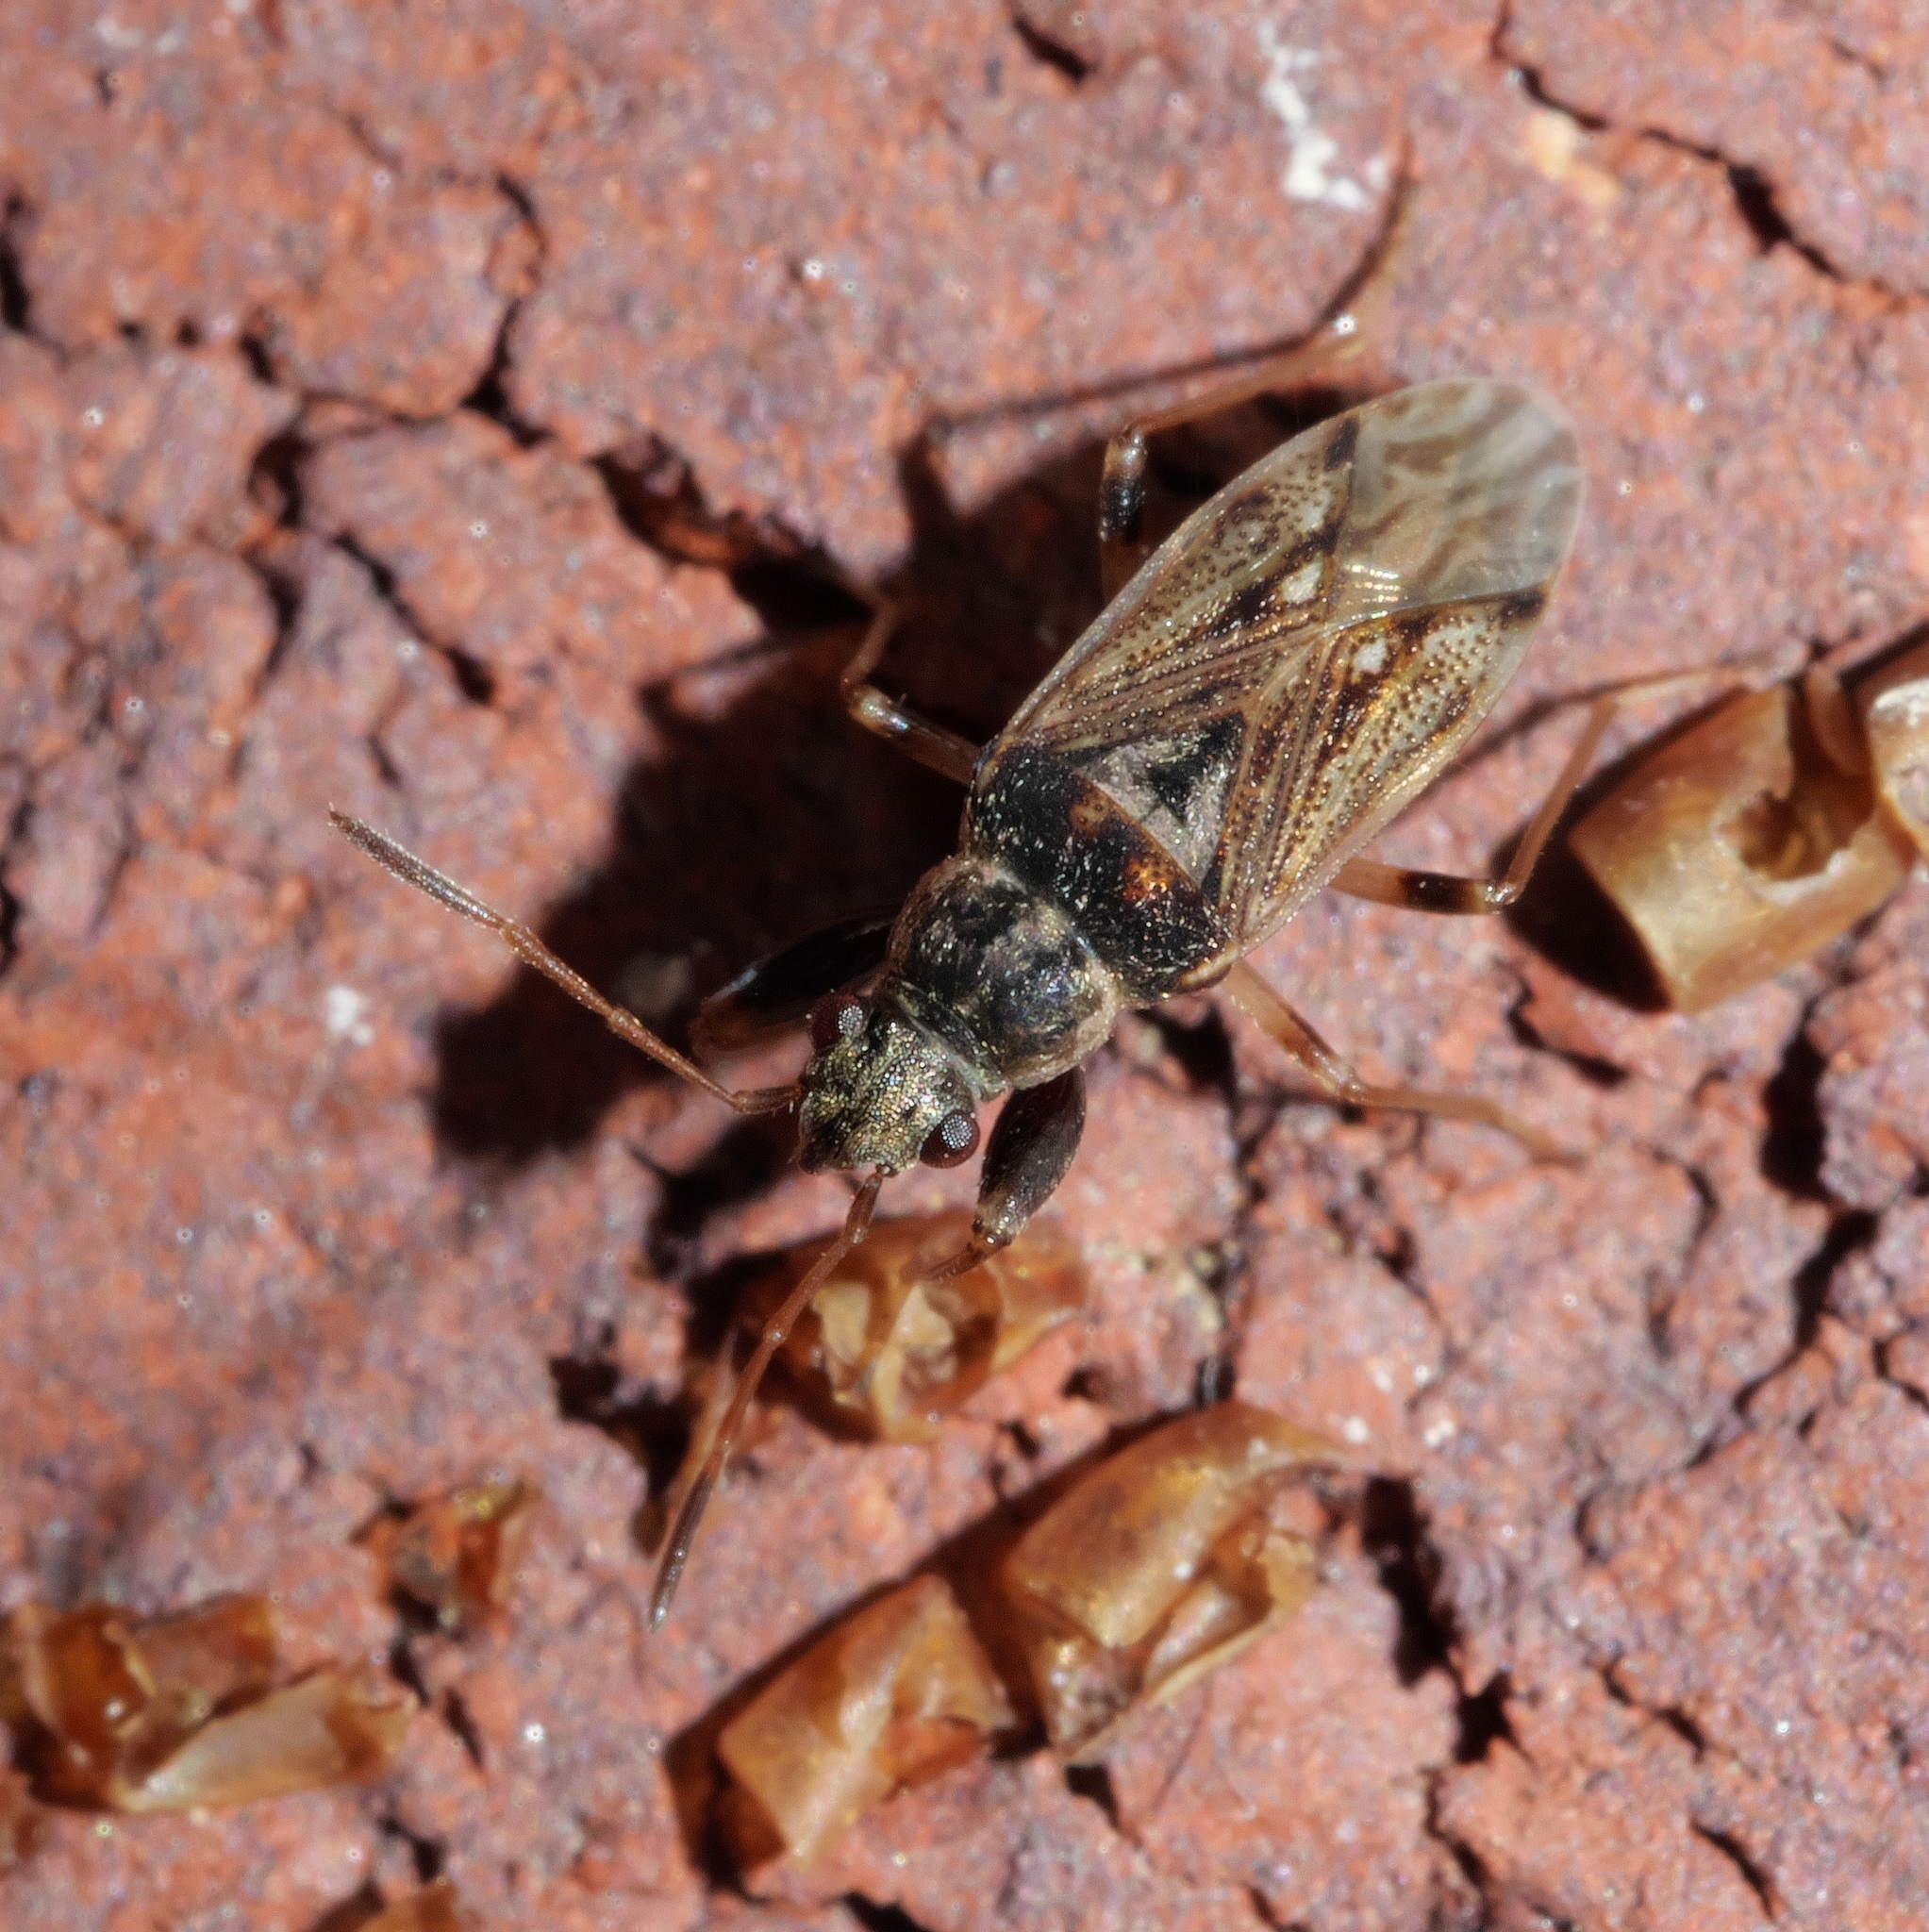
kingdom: Animalia
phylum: Arthropoda
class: Insecta
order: Hemiptera
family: Rhyparochromidae
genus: Pseudopachybrachius
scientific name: Pseudopachybrachius basalis
